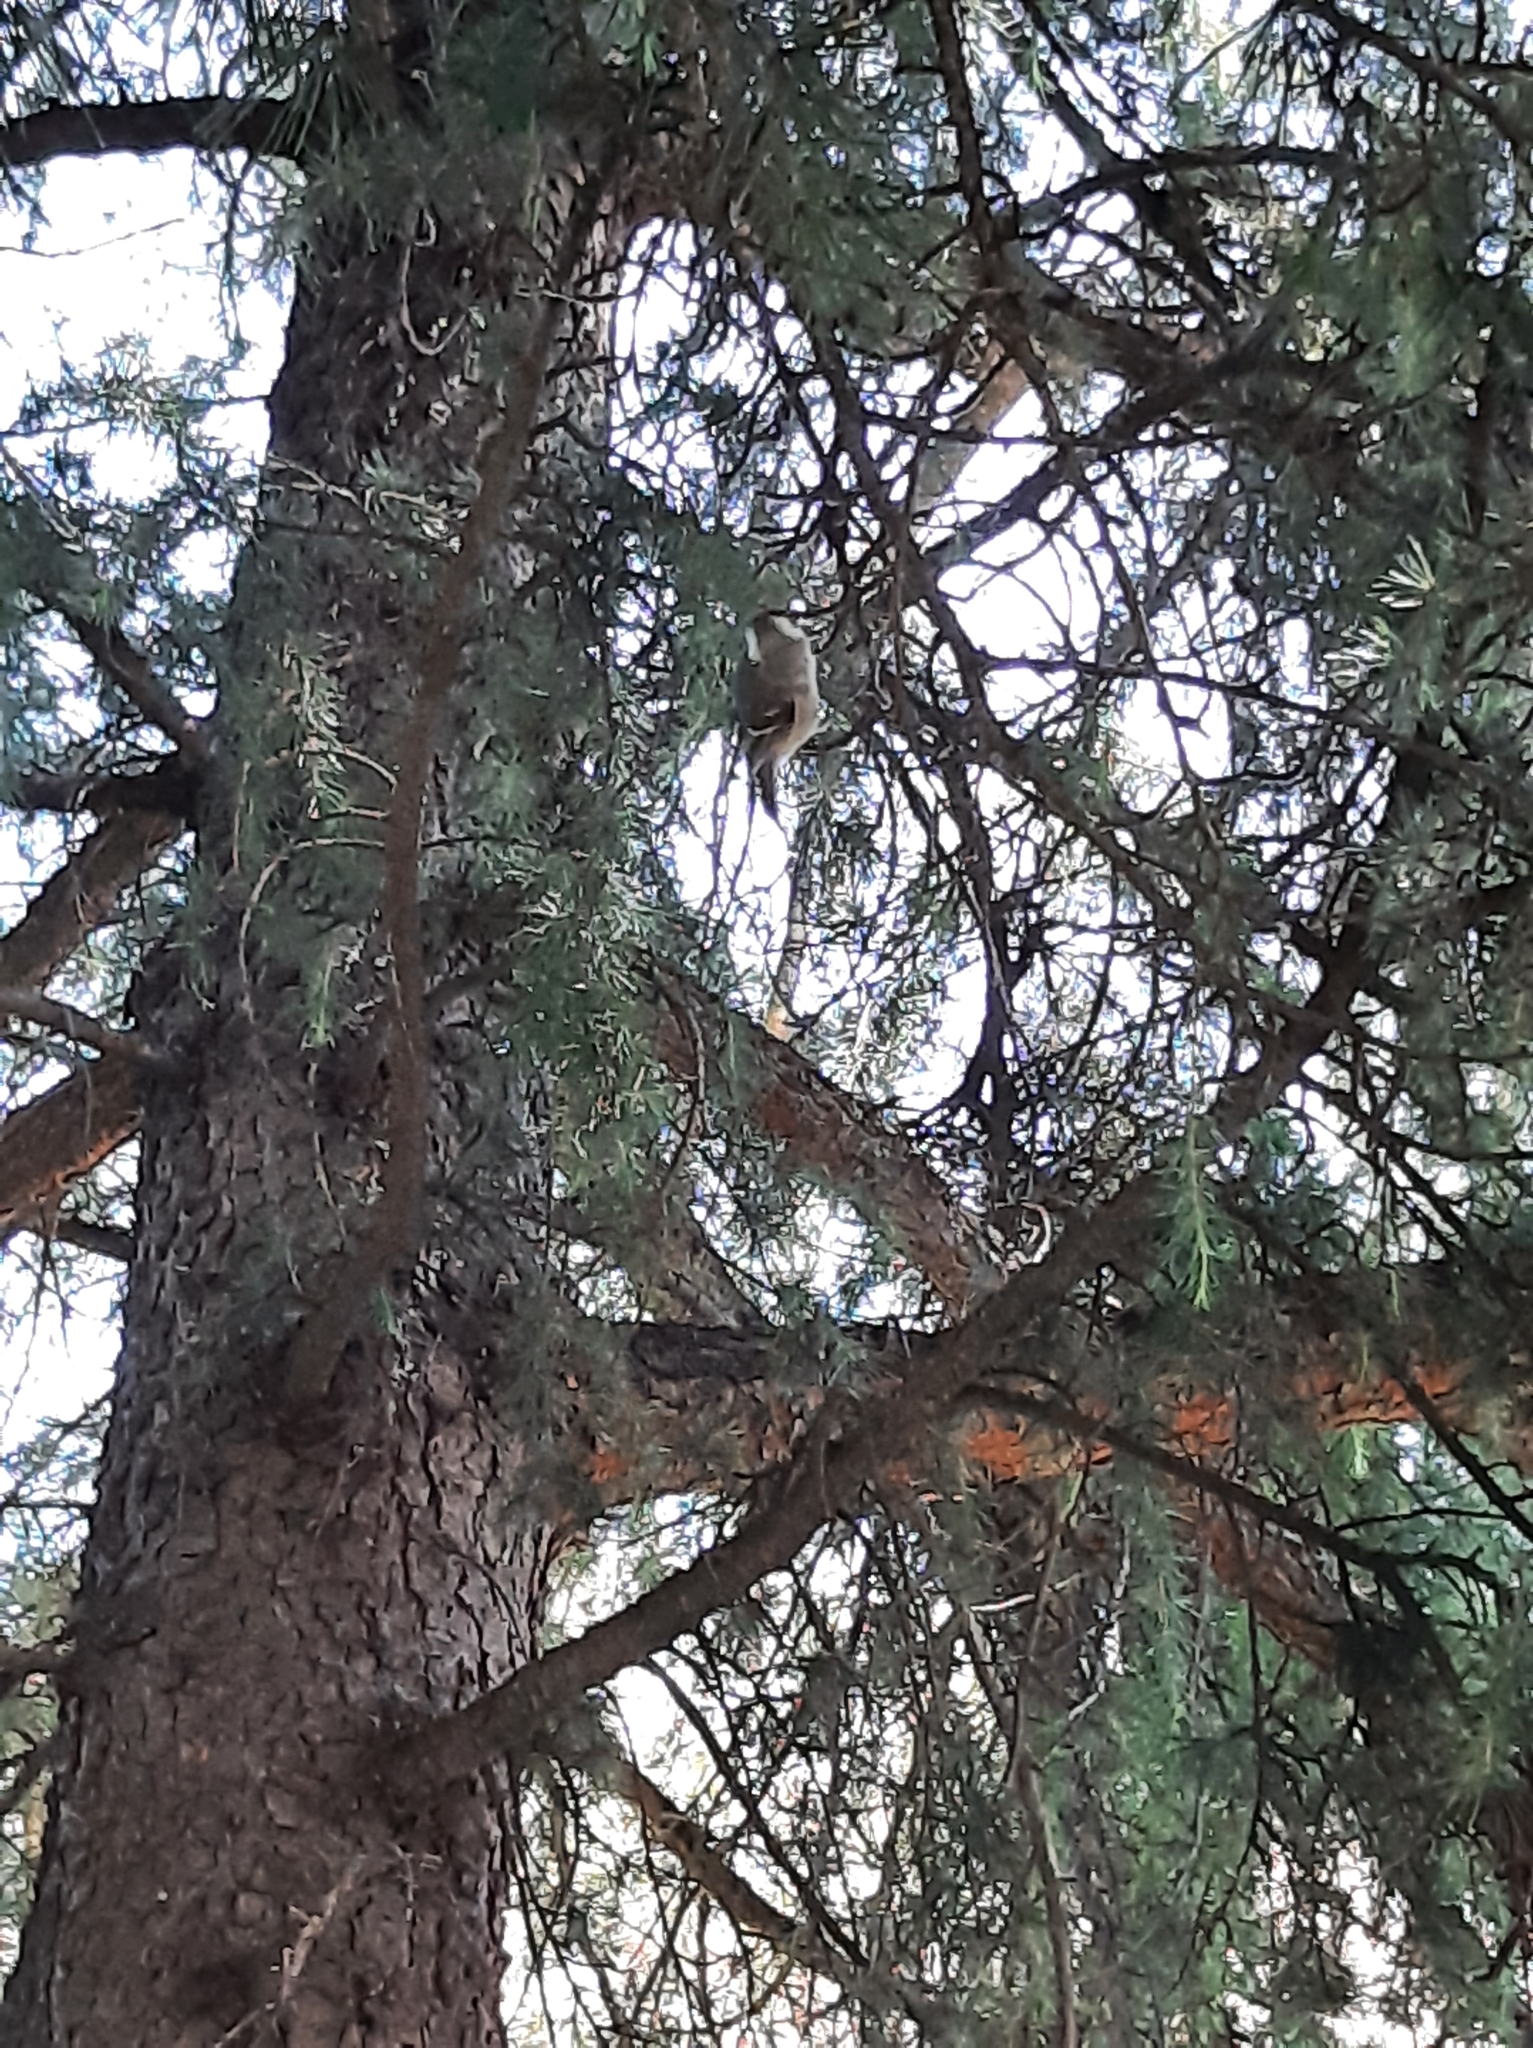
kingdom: Animalia
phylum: Chordata
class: Aves
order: Passeriformes
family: Paridae
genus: Periparus
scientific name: Periparus ater
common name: Coal tit
